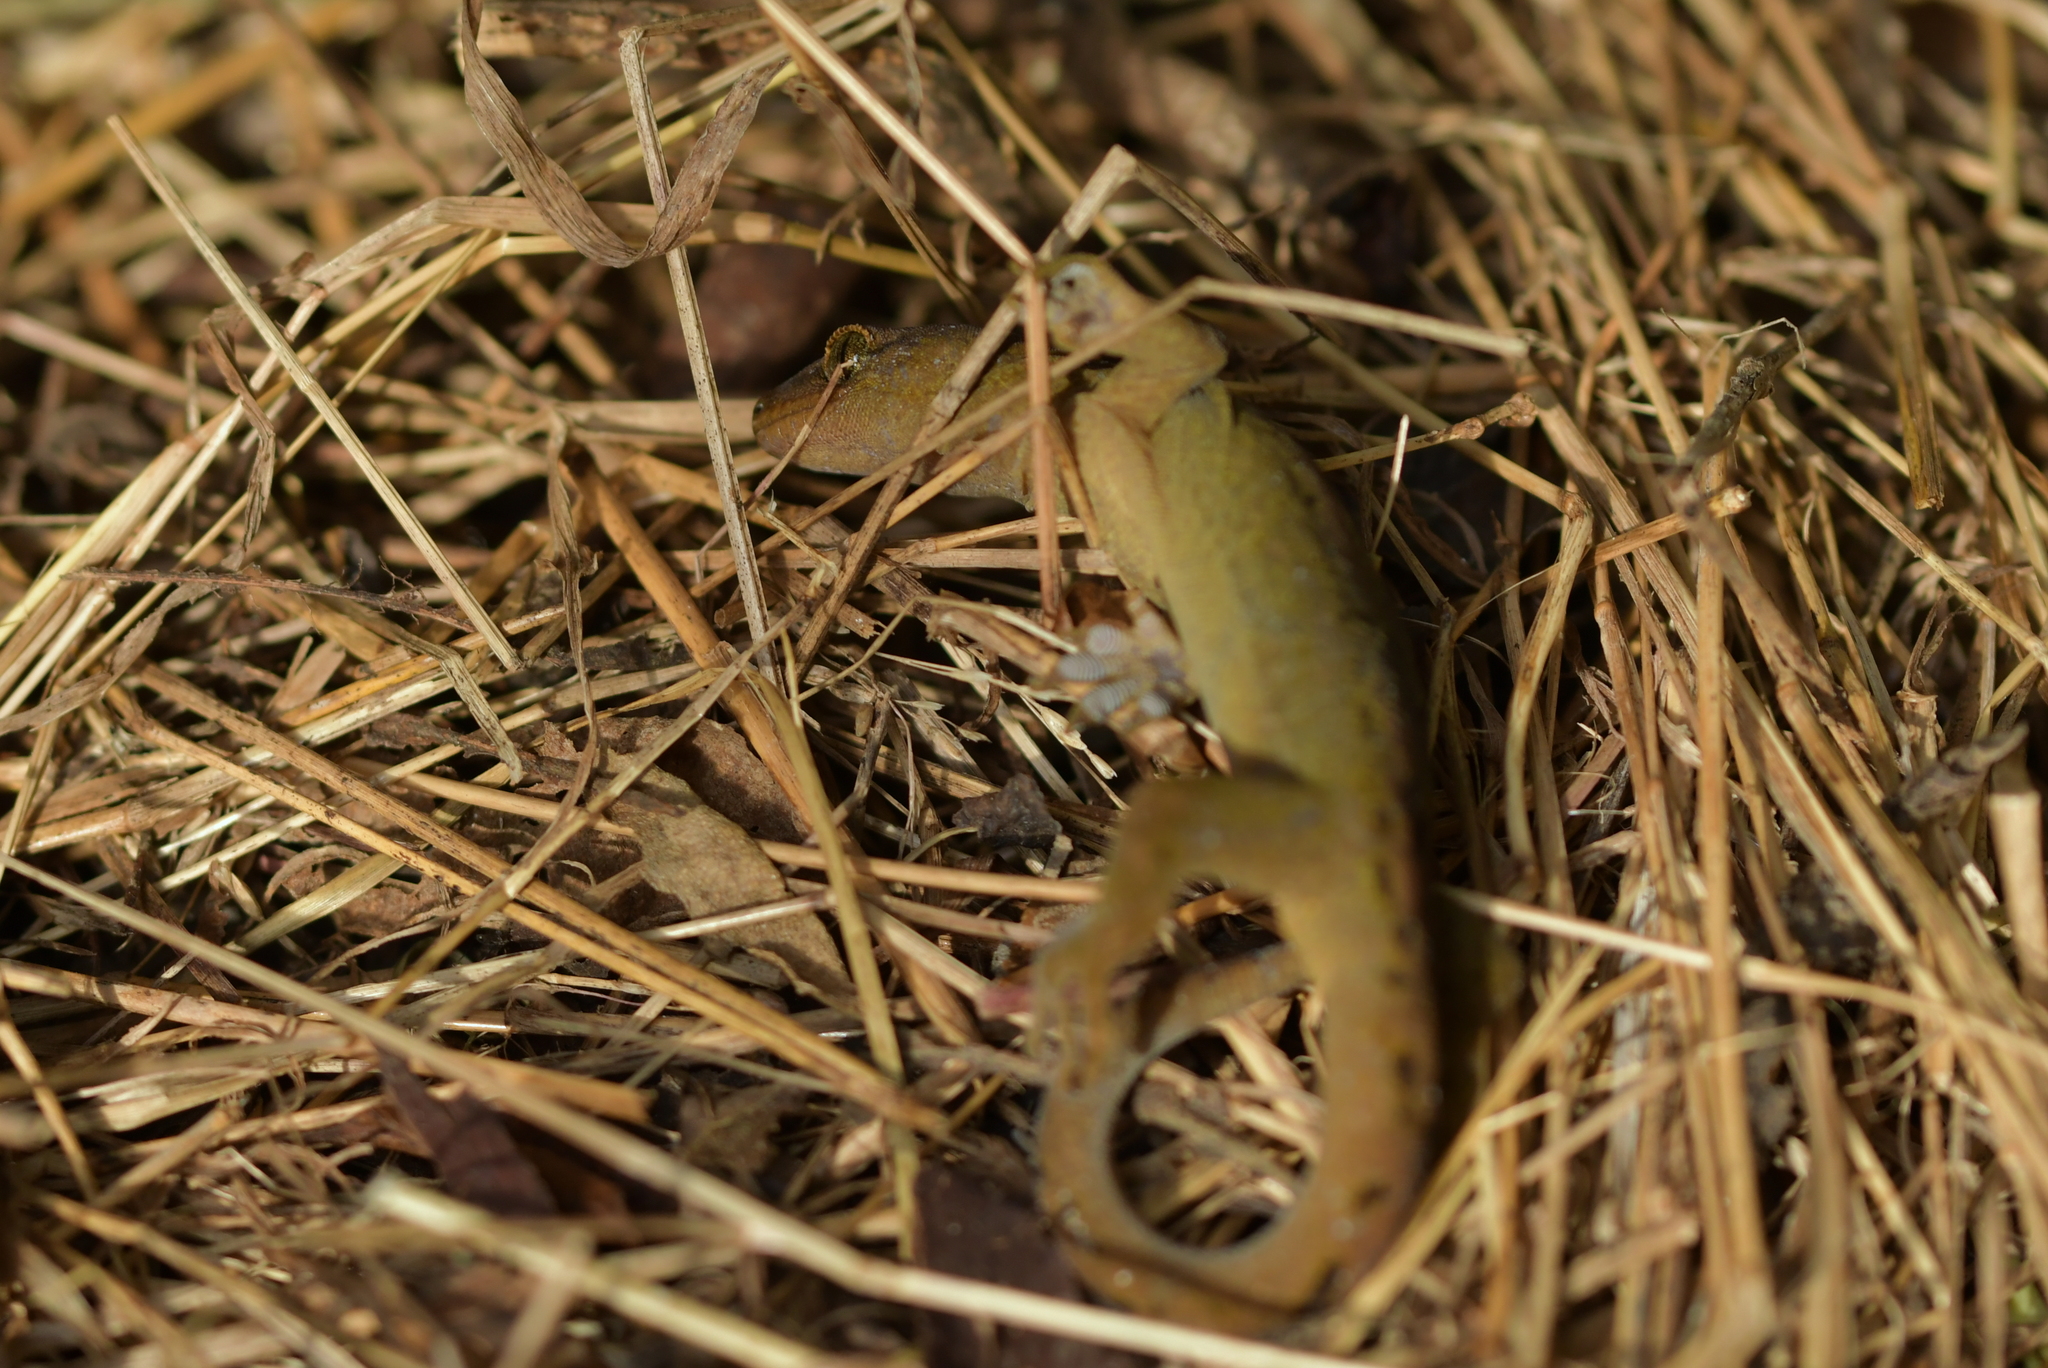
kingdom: Animalia
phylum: Chordata
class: Squamata
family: Diplodactylidae
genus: Woodworthia
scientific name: Woodworthia maculata
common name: Raukawa gecko
